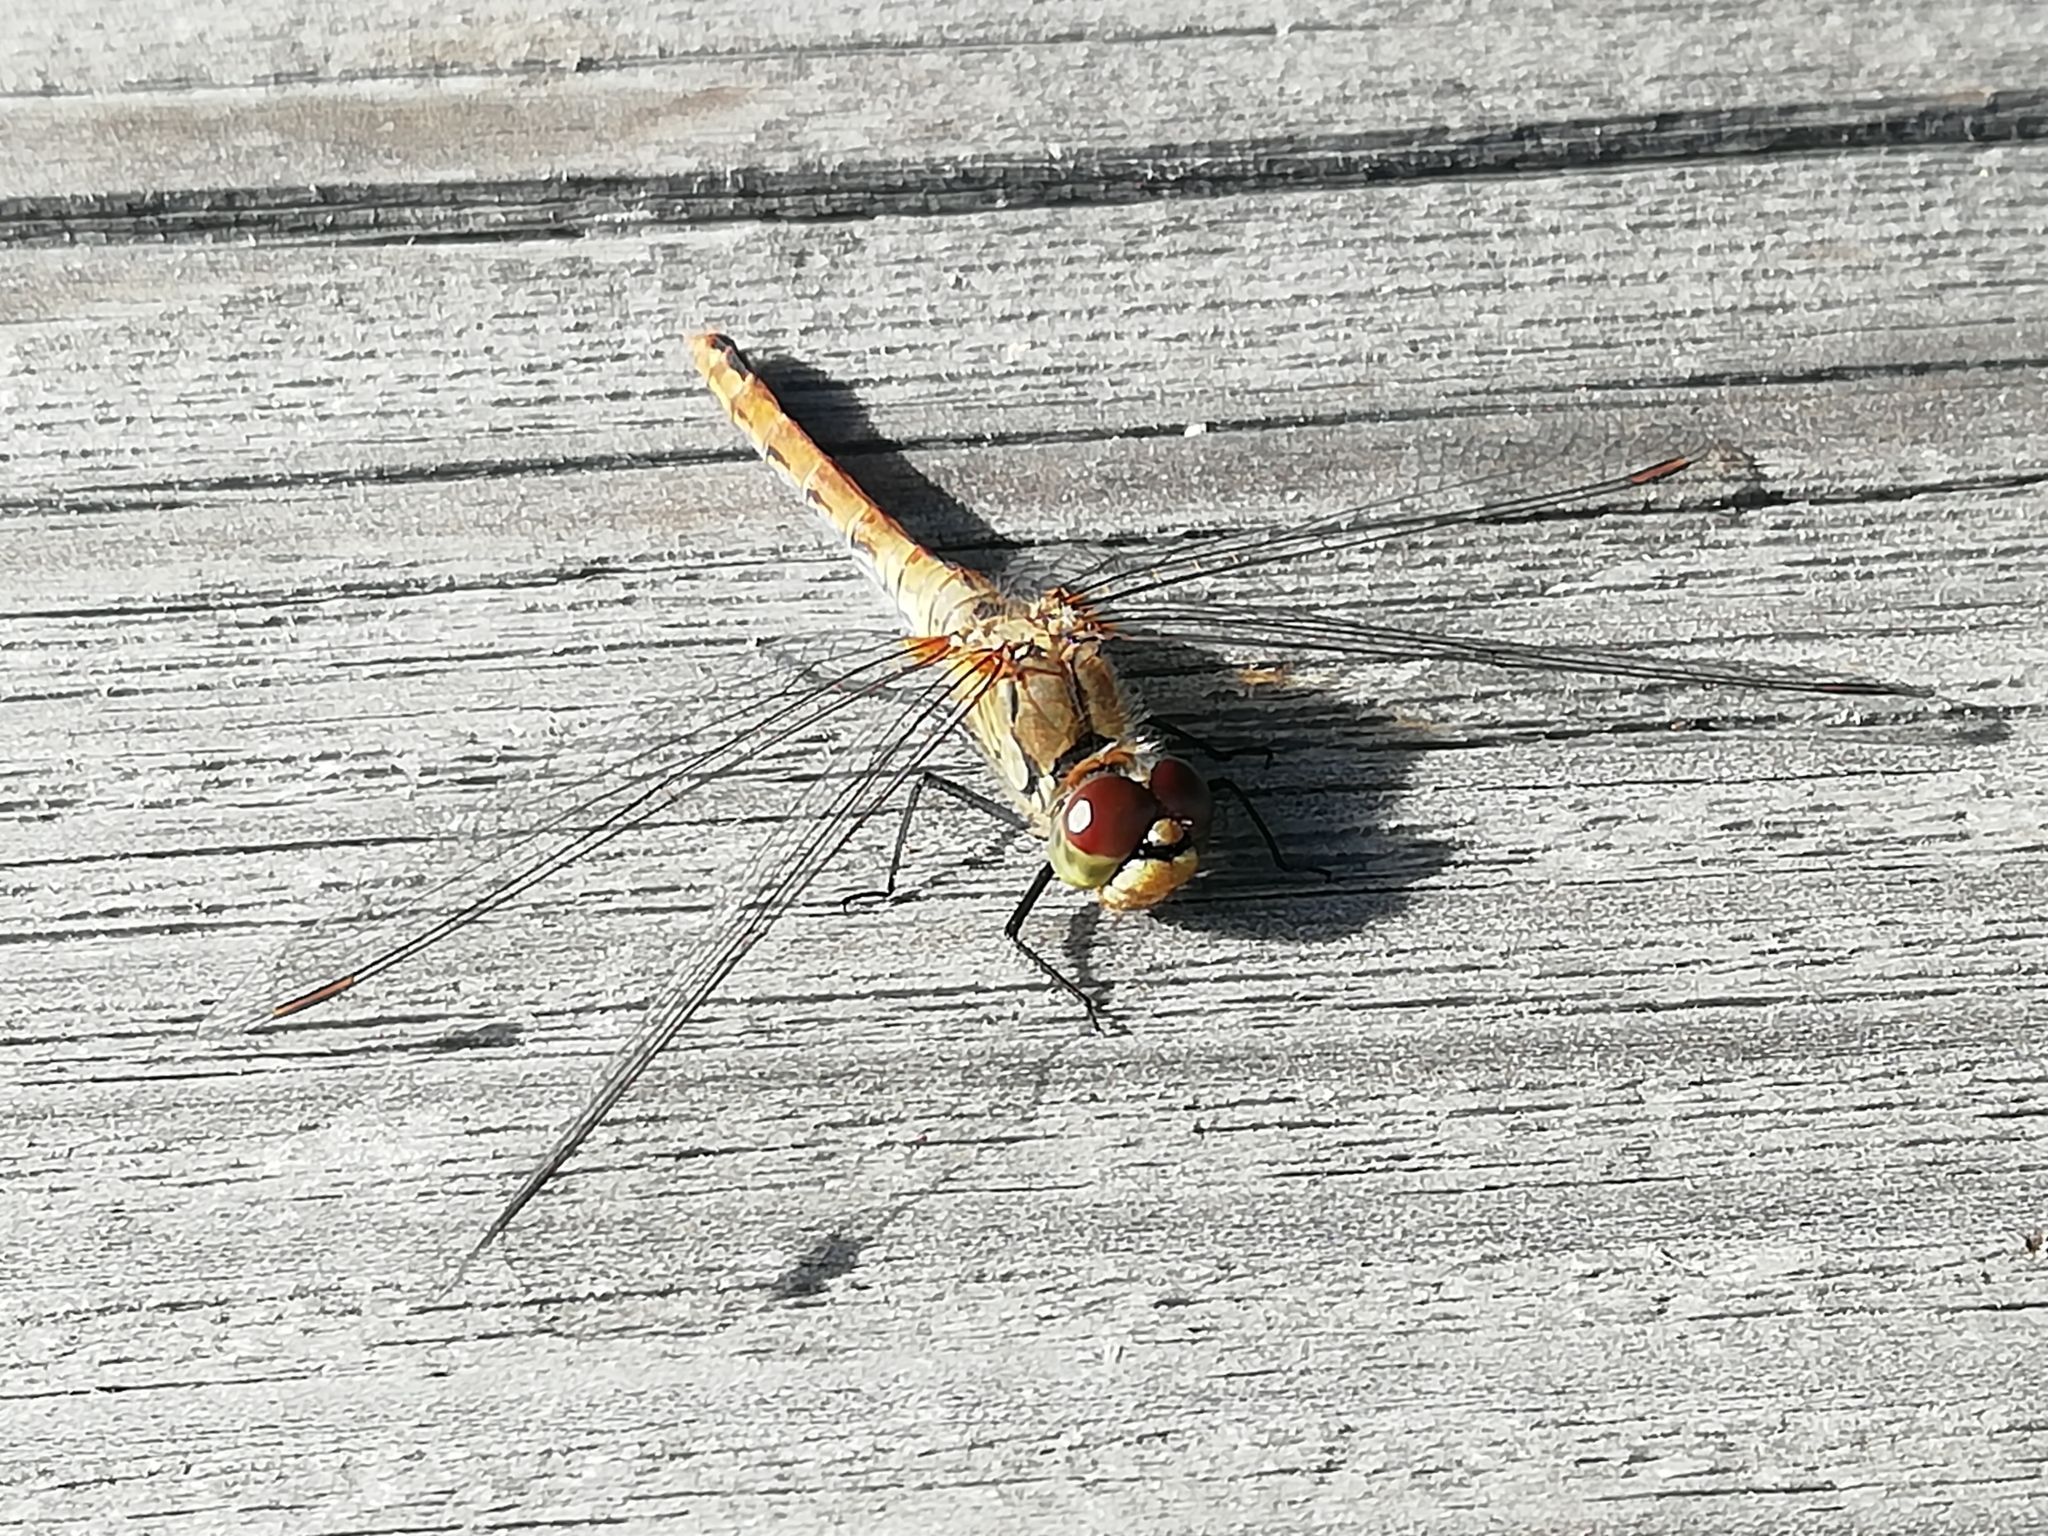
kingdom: Animalia
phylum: Arthropoda
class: Insecta
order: Odonata
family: Libellulidae
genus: Sympetrum
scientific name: Sympetrum sanguineum
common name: Ruddy darter
